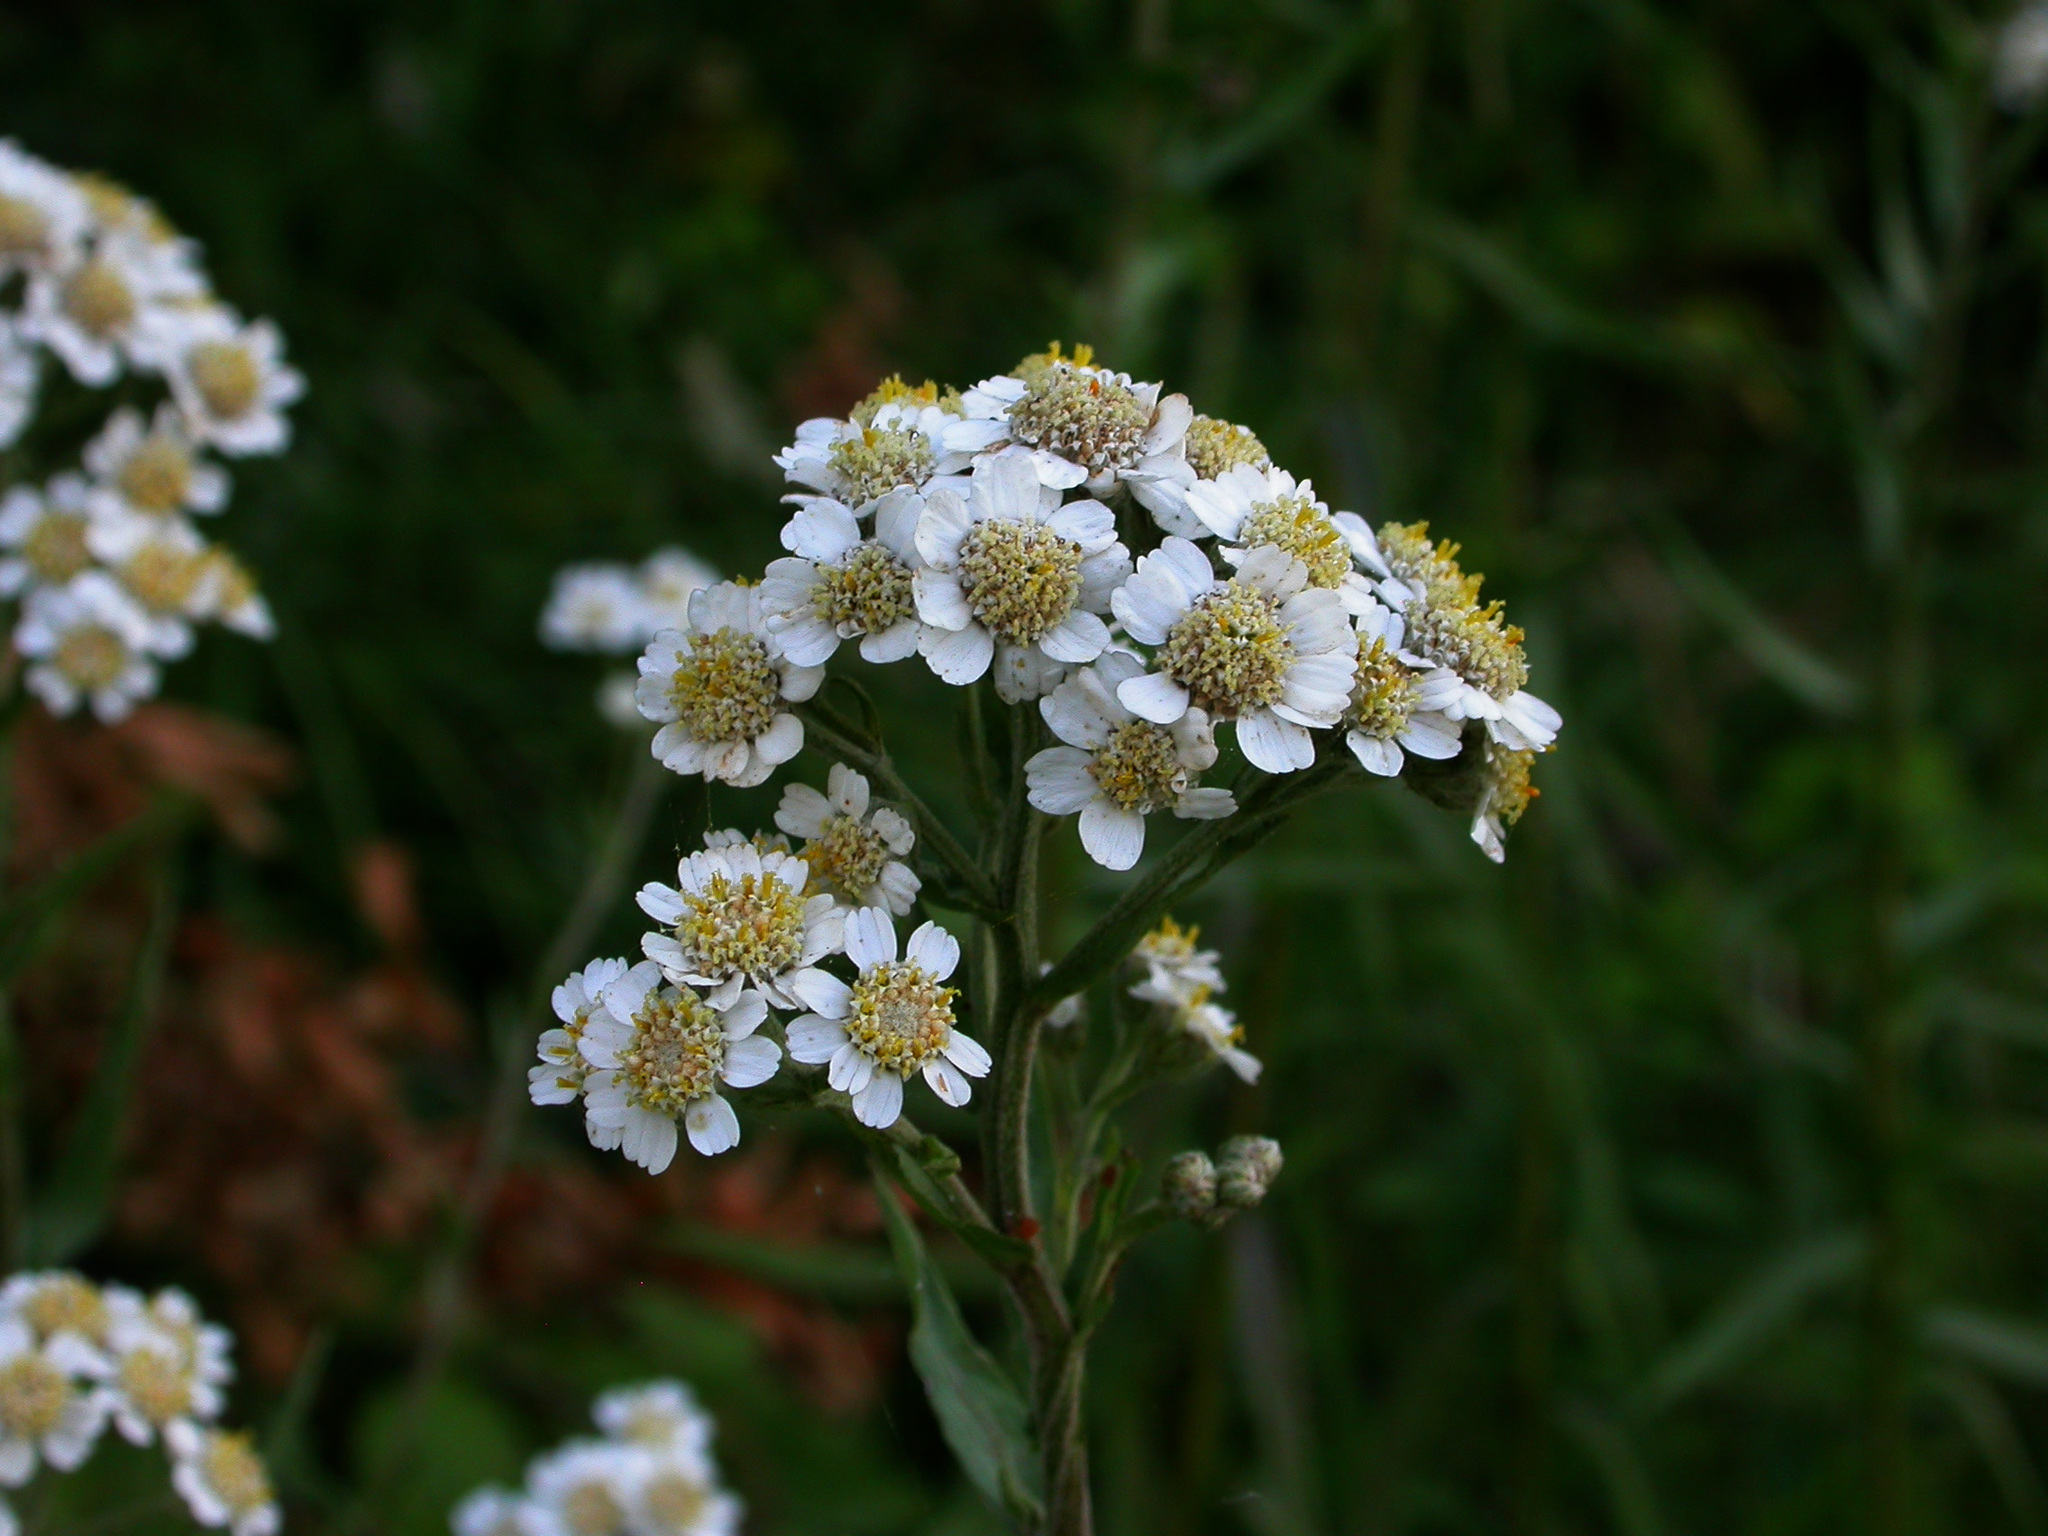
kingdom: Plantae
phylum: Tracheophyta
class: Magnoliopsida
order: Asterales
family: Asteraceae
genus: Achillea
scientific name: Achillea ptarmica
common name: Sneezeweed
